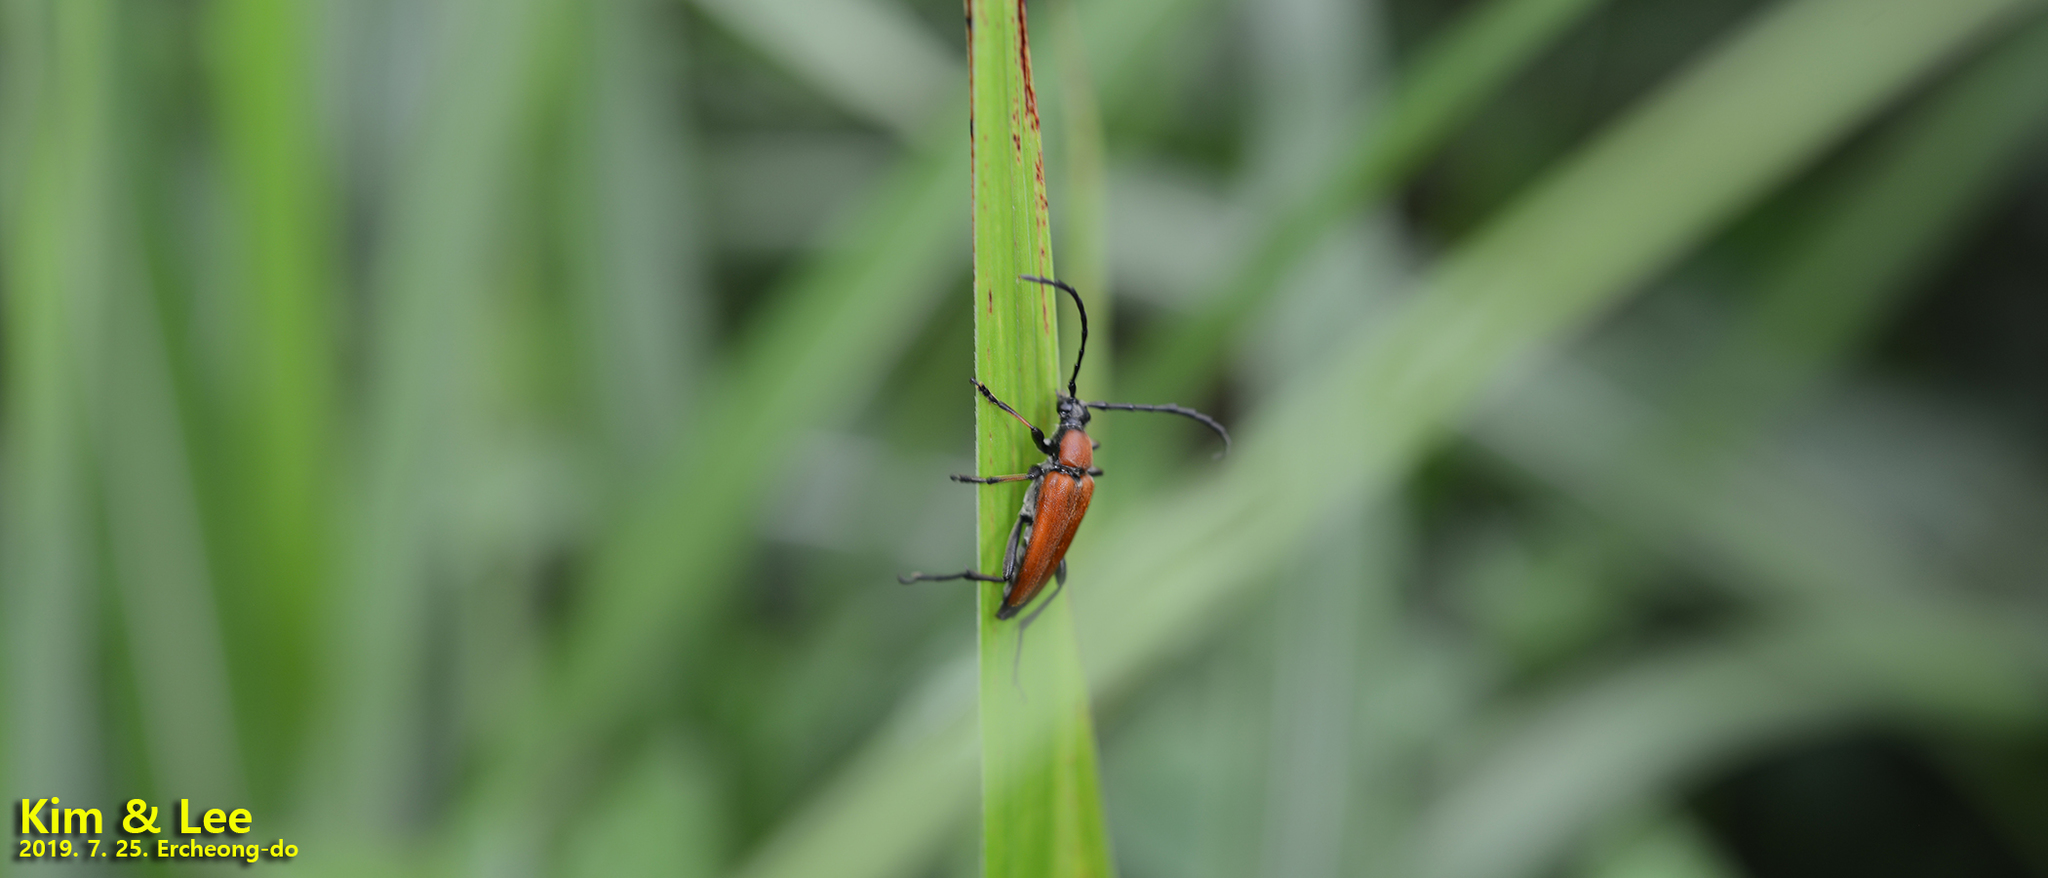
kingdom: Animalia
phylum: Arthropoda
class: Insecta
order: Coleoptera
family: Cerambycidae
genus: Stictoleptura
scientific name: Stictoleptura dichroa
